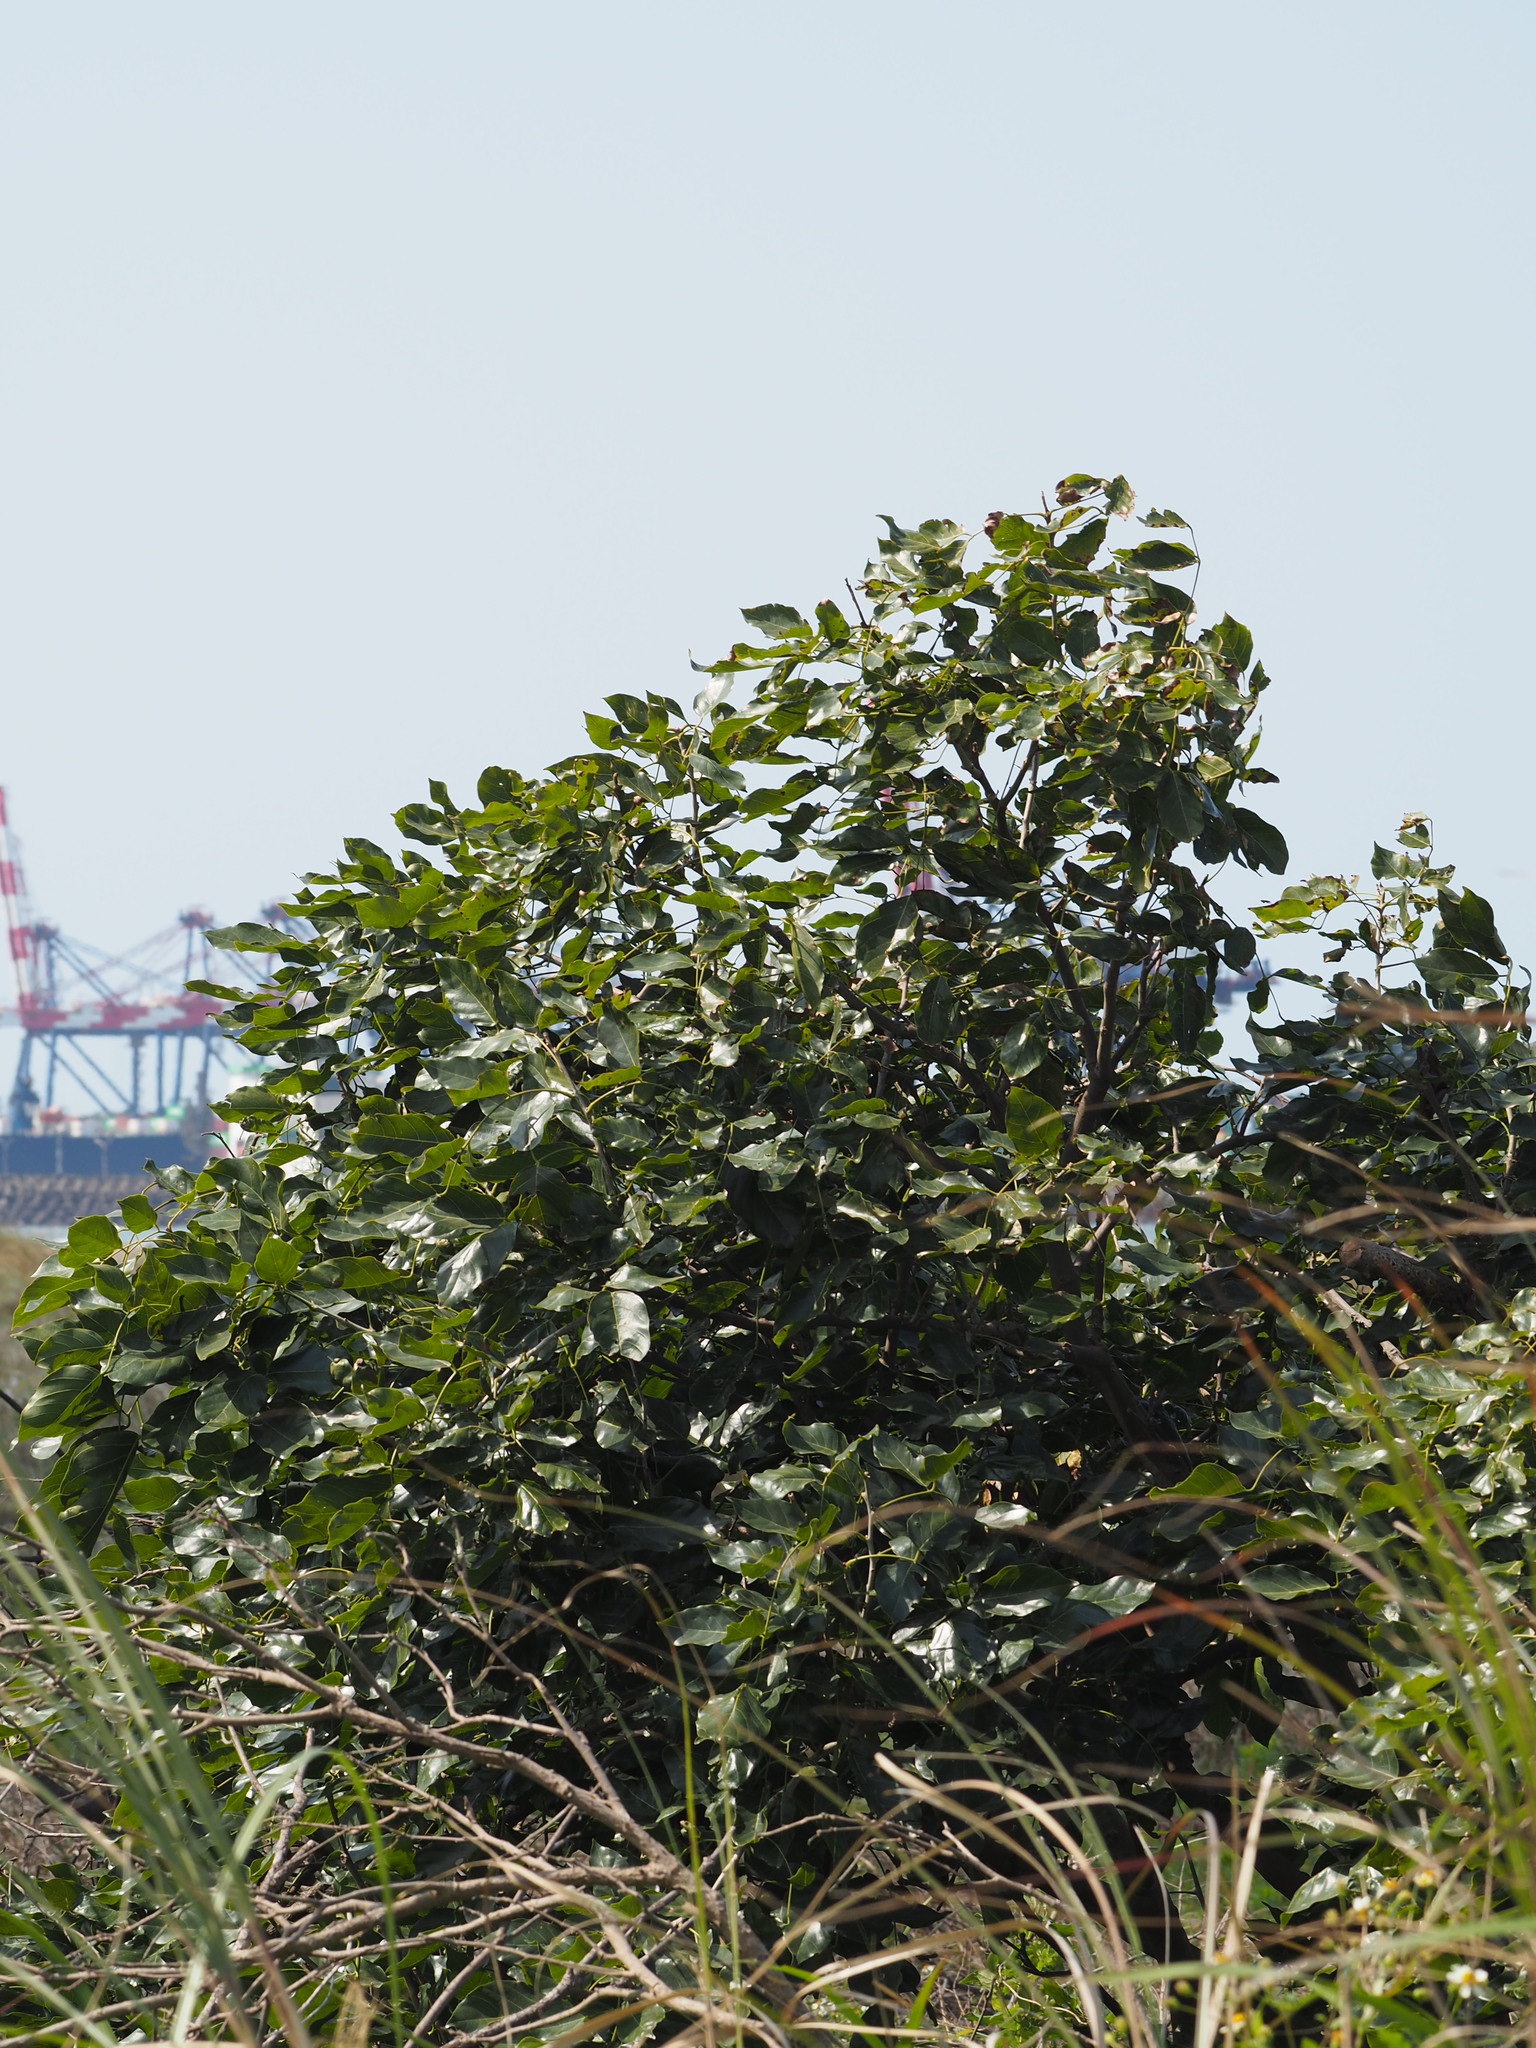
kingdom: Plantae
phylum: Tracheophyta
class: Magnoliopsida
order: Fabales
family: Fabaceae
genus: Pongamia
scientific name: Pongamia pinnata
